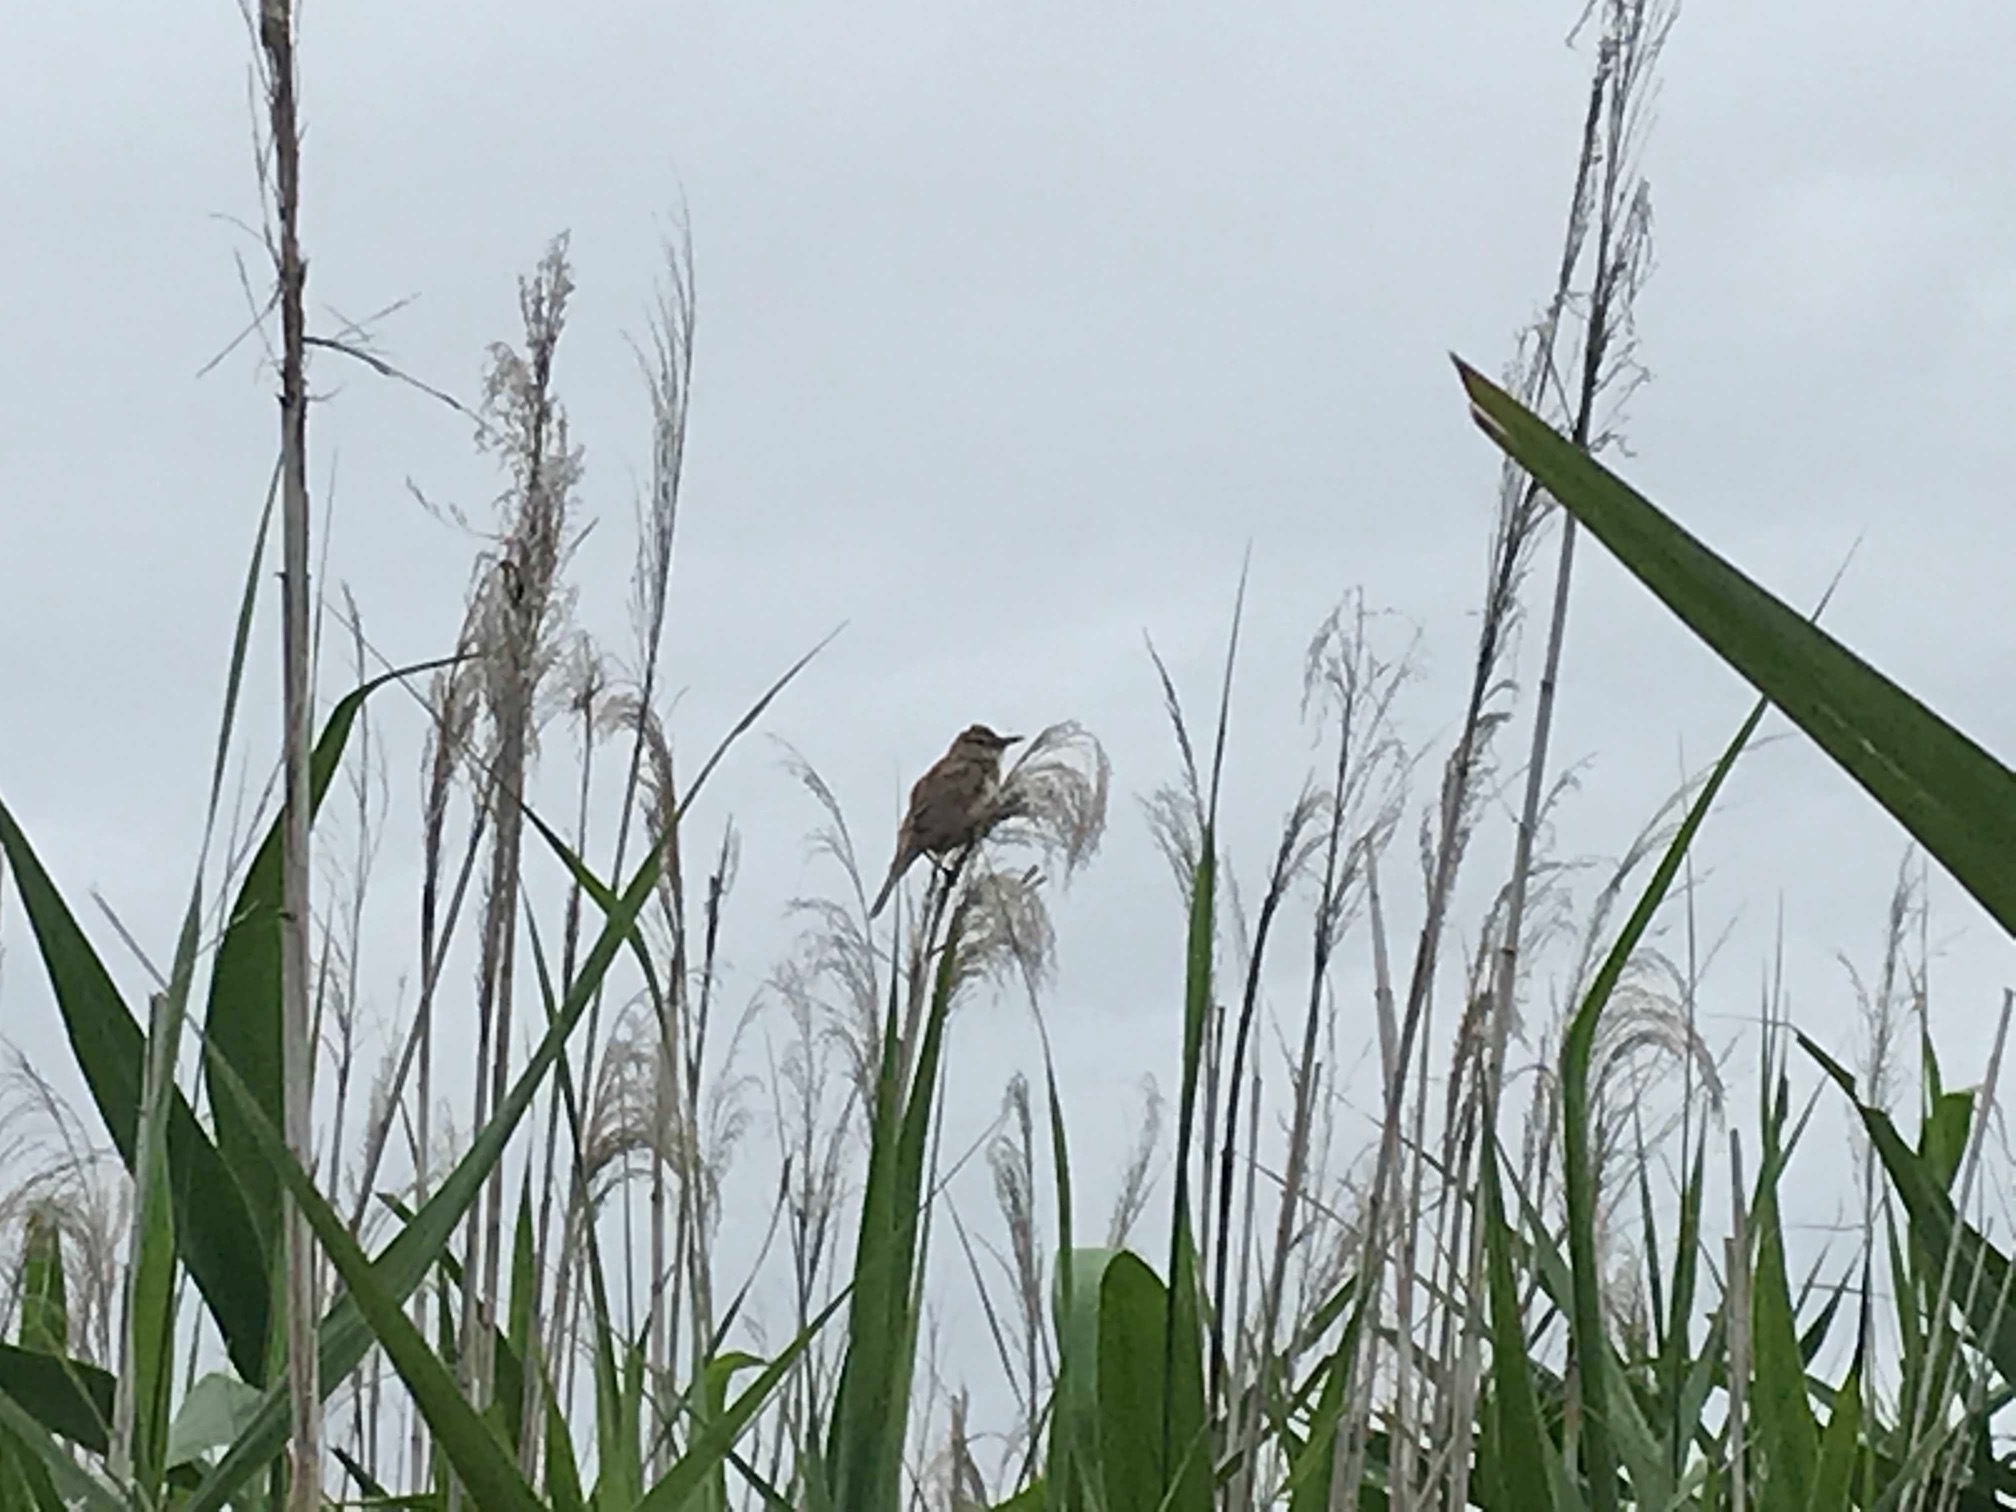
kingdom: Animalia
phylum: Chordata
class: Aves
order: Passeriformes
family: Acrocephalidae
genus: Acrocephalus
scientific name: Acrocephalus orientalis
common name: Oriental reed warbler
